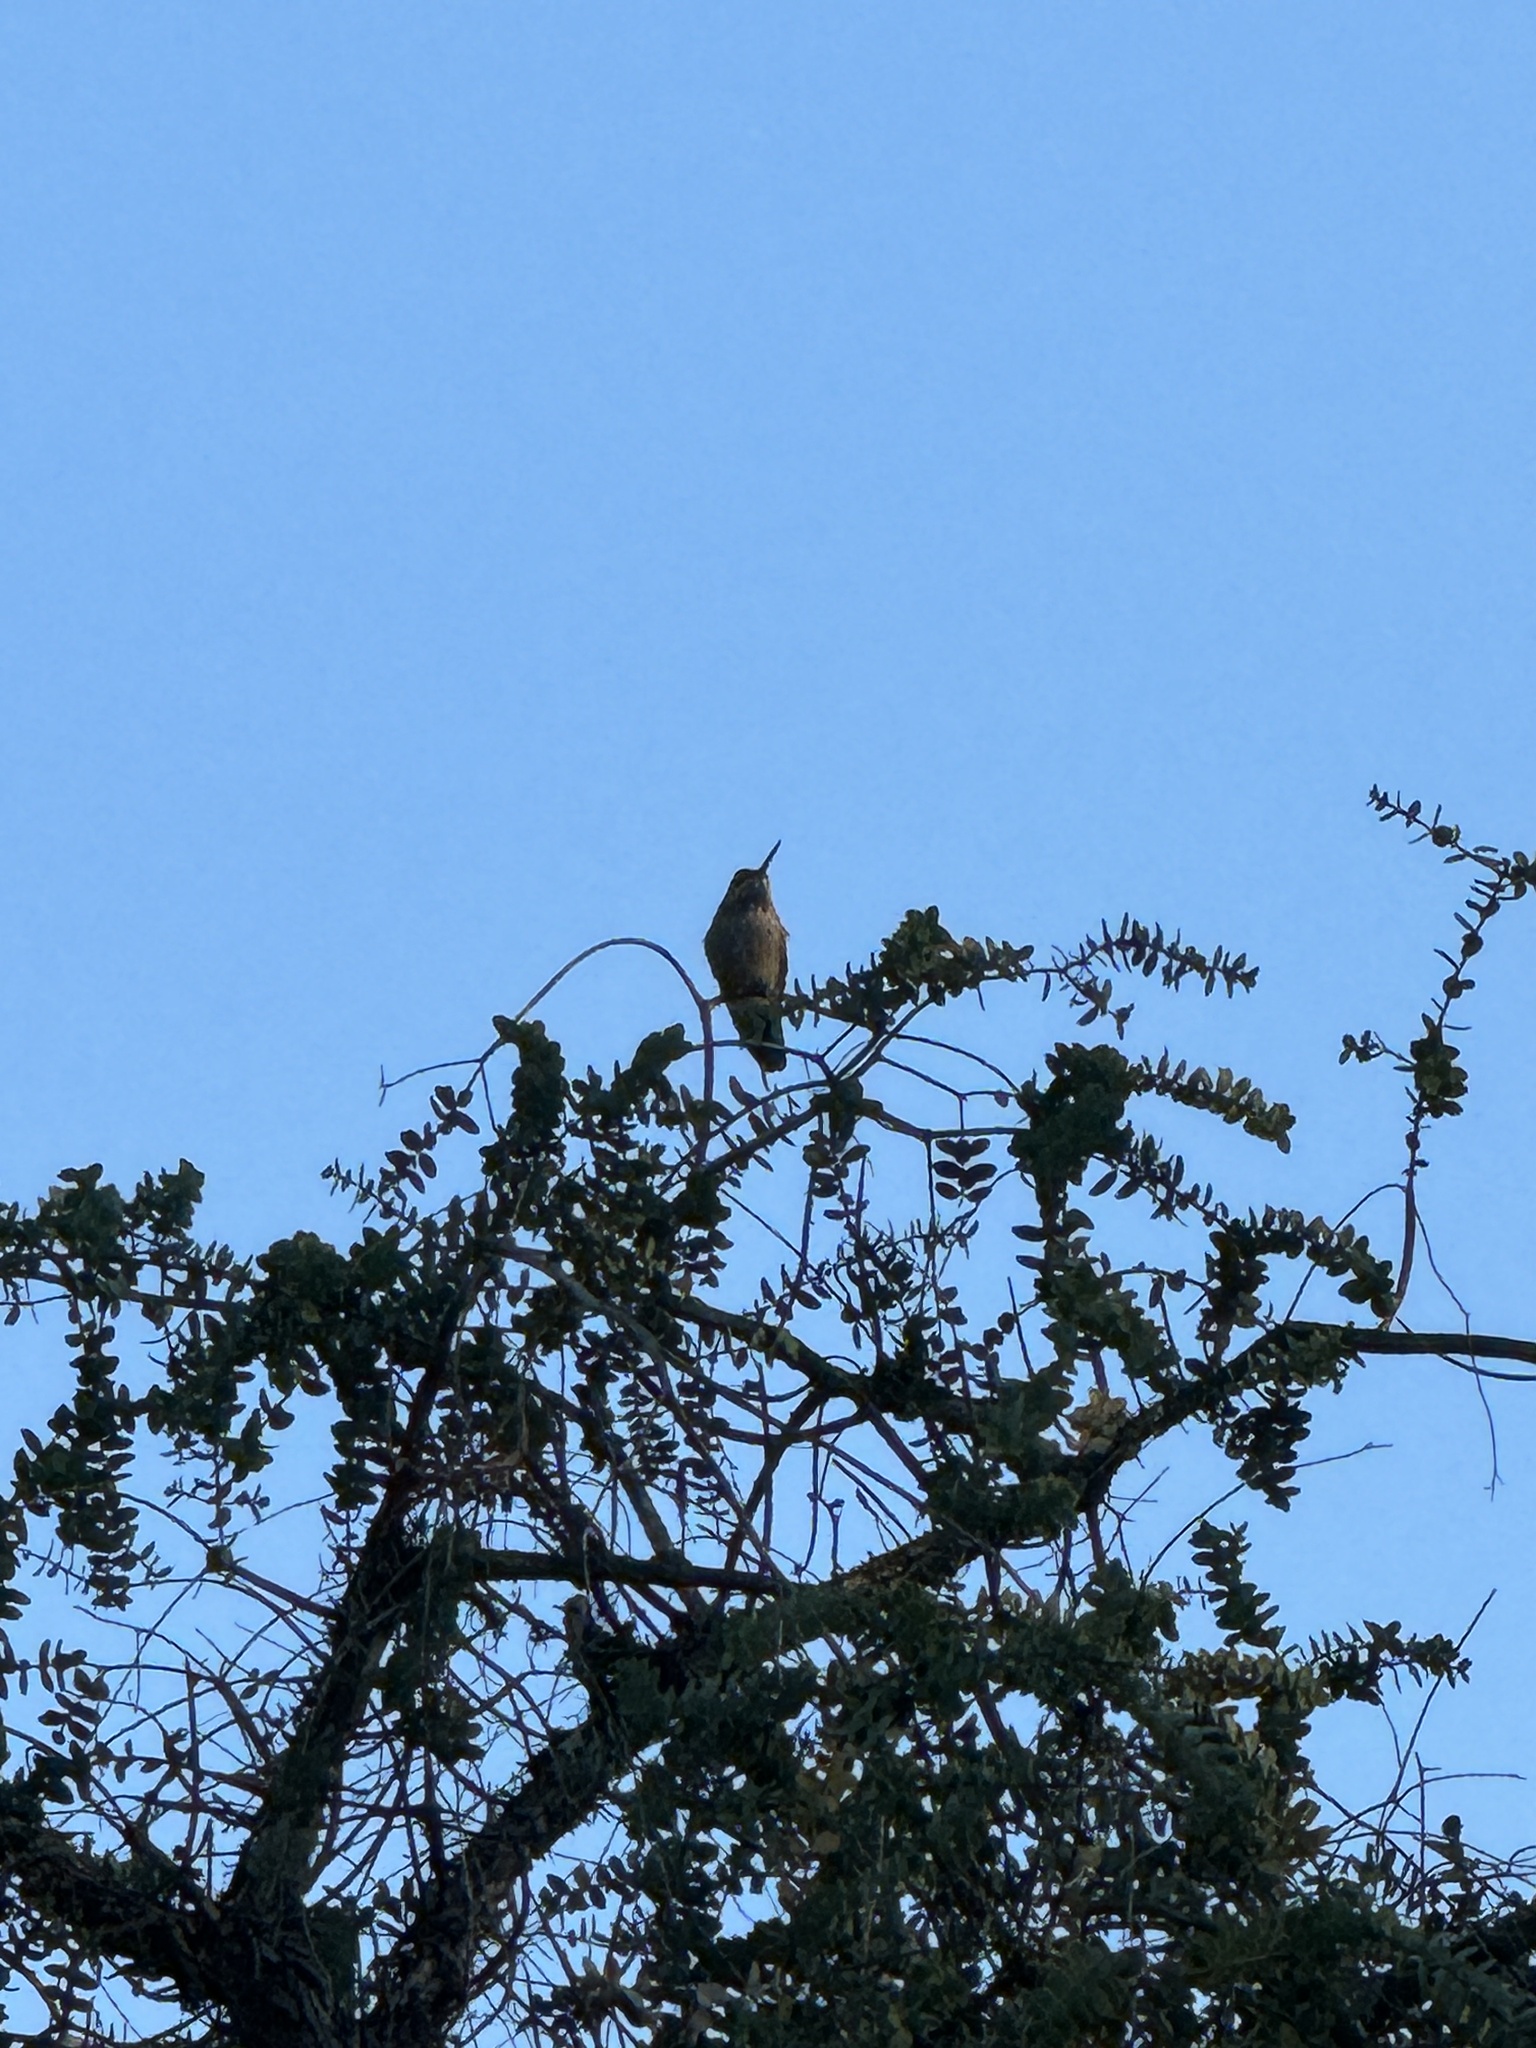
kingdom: Animalia
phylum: Chordata
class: Aves
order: Apodiformes
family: Trochilidae
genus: Calypte
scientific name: Calypte anna
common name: Anna's hummingbird
